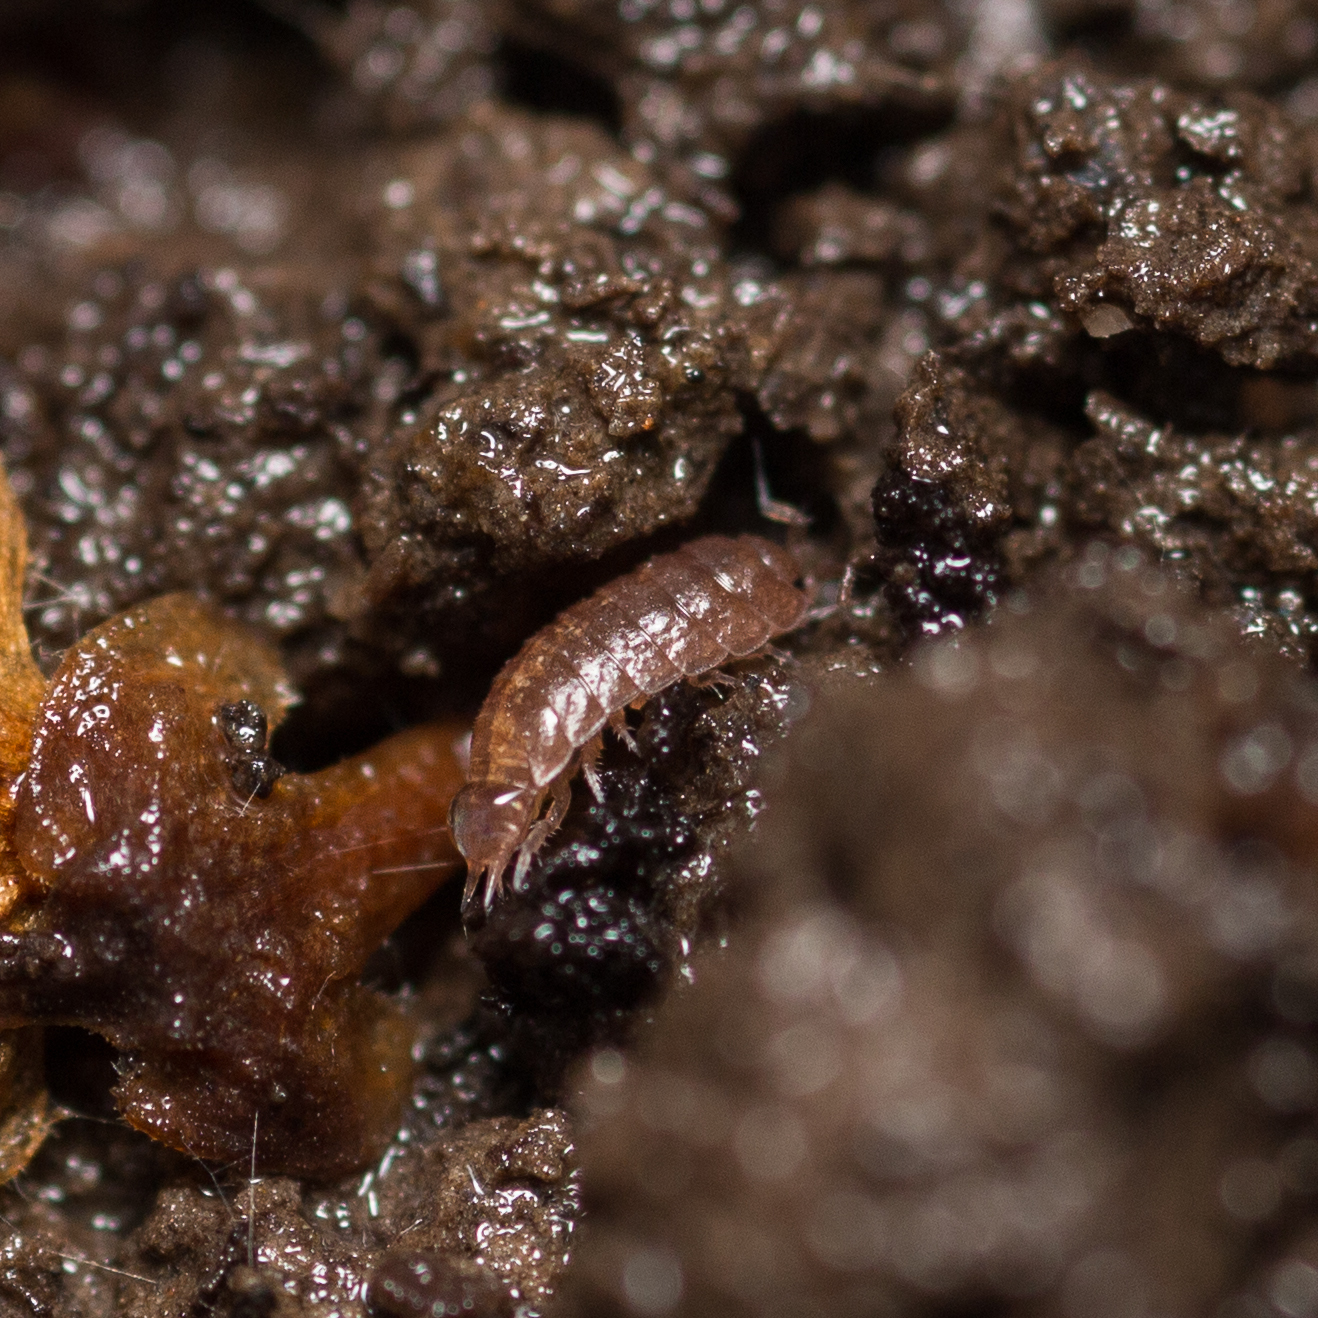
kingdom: Animalia
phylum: Arthropoda
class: Malacostraca
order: Isopoda
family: Trichoniscidae
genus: Hyloniscus
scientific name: Hyloniscus riparius
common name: Isopod
